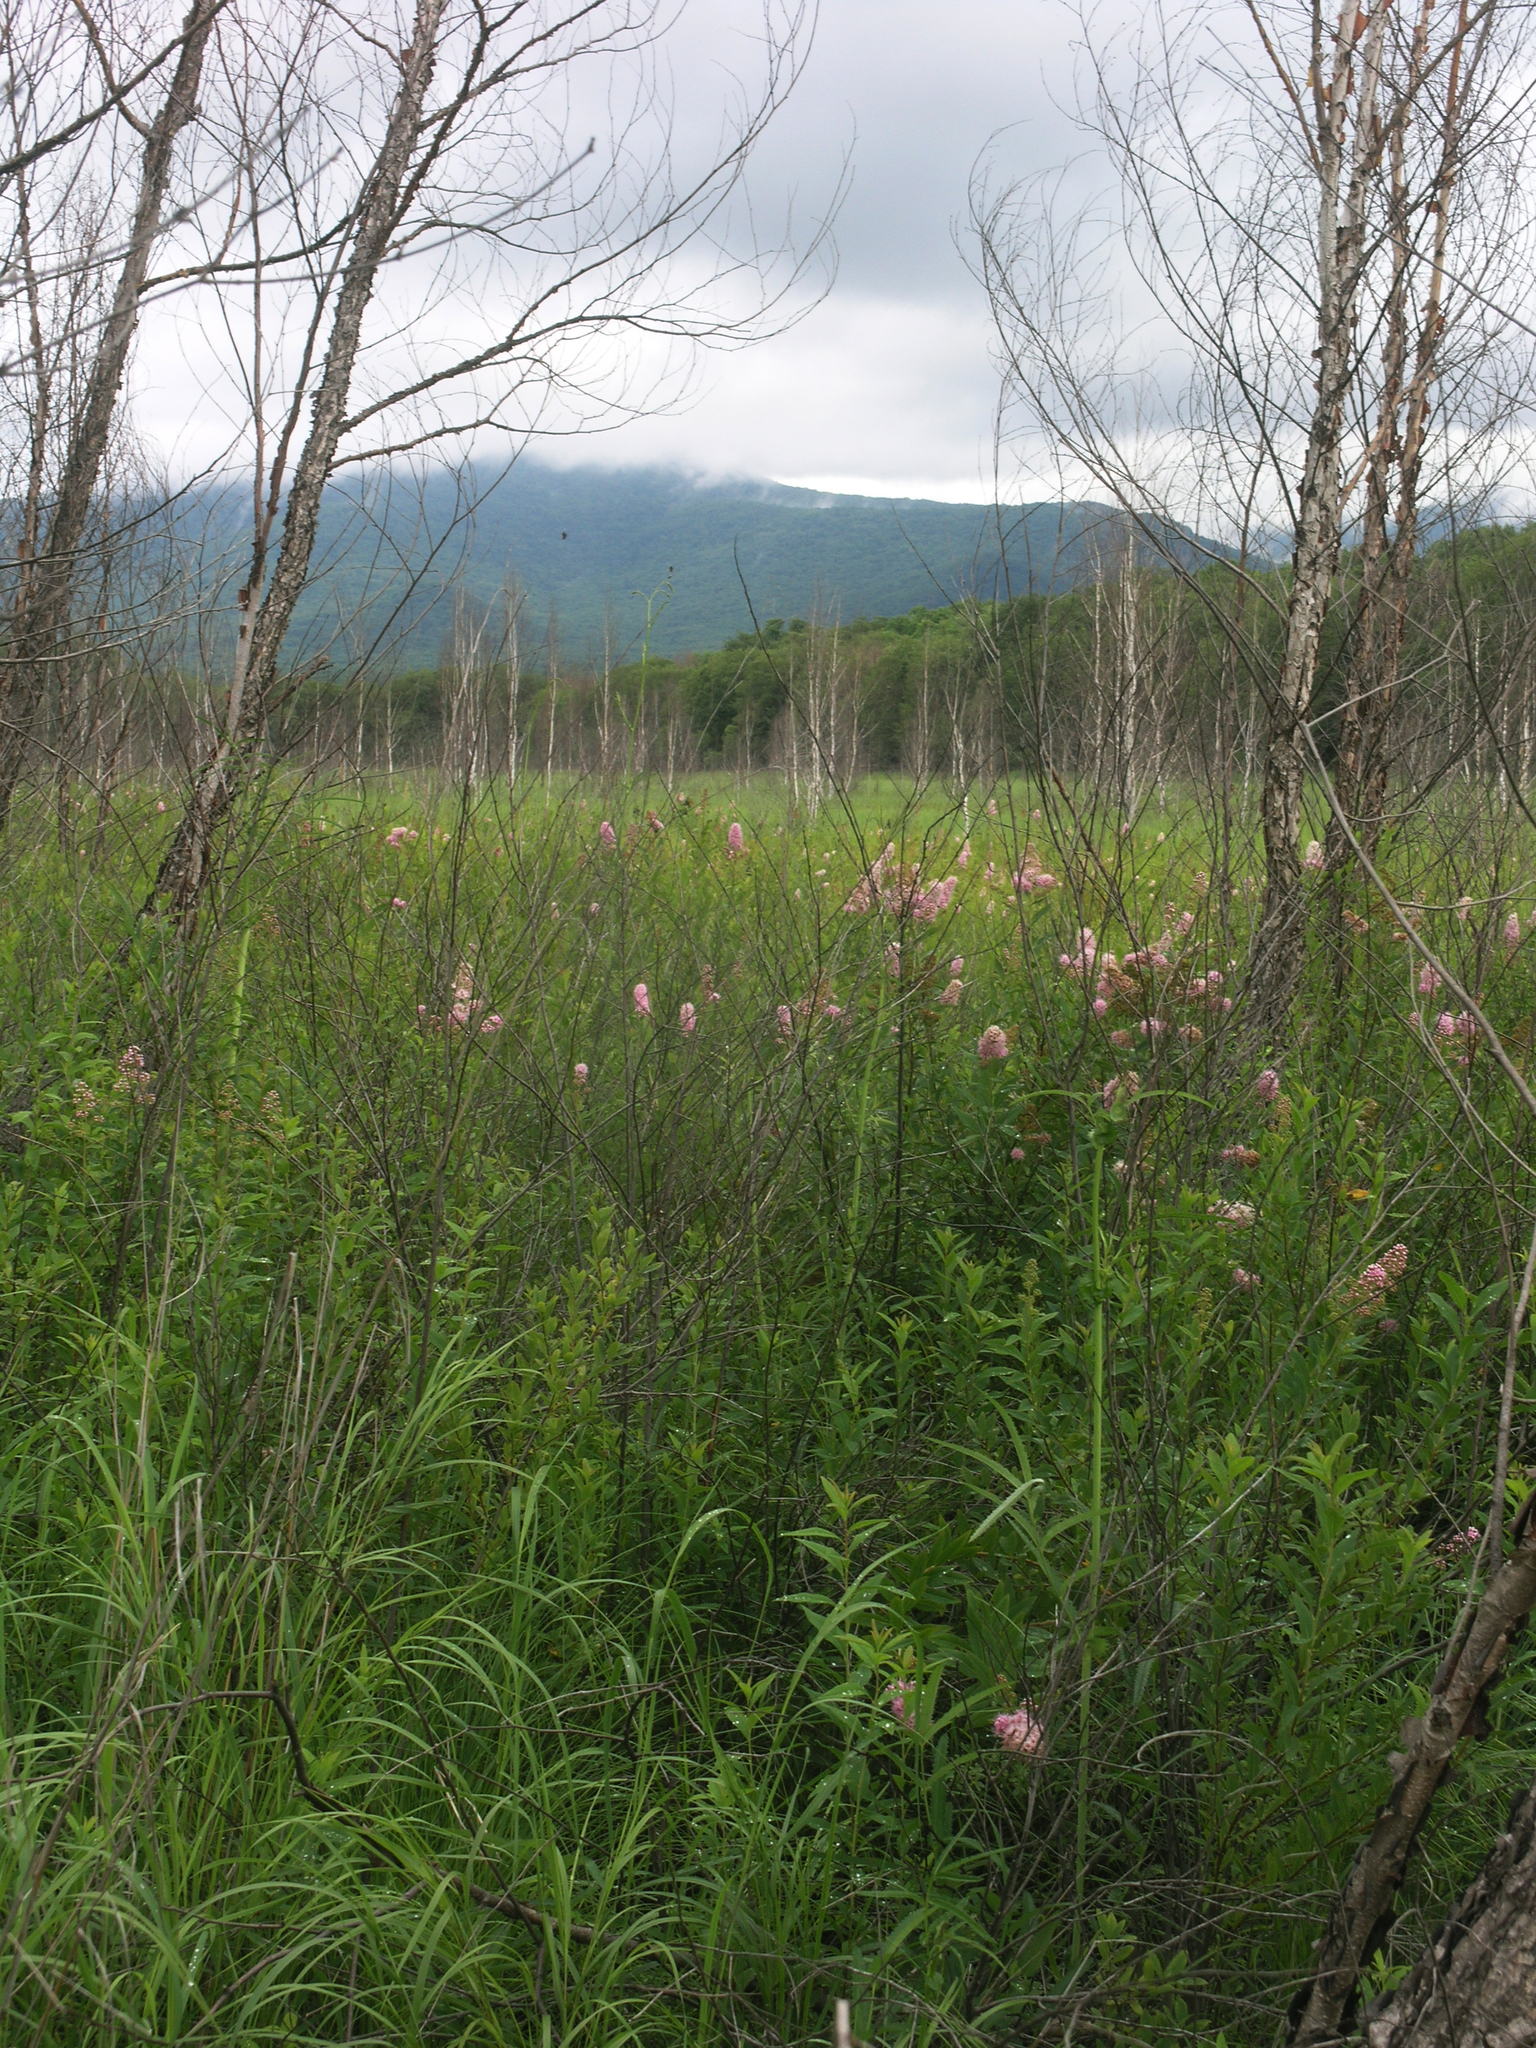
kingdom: Plantae
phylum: Tracheophyta
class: Magnoliopsida
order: Rosales
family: Rosaceae
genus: Spiraea
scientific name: Spiraea salicifolia
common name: Bridewort
